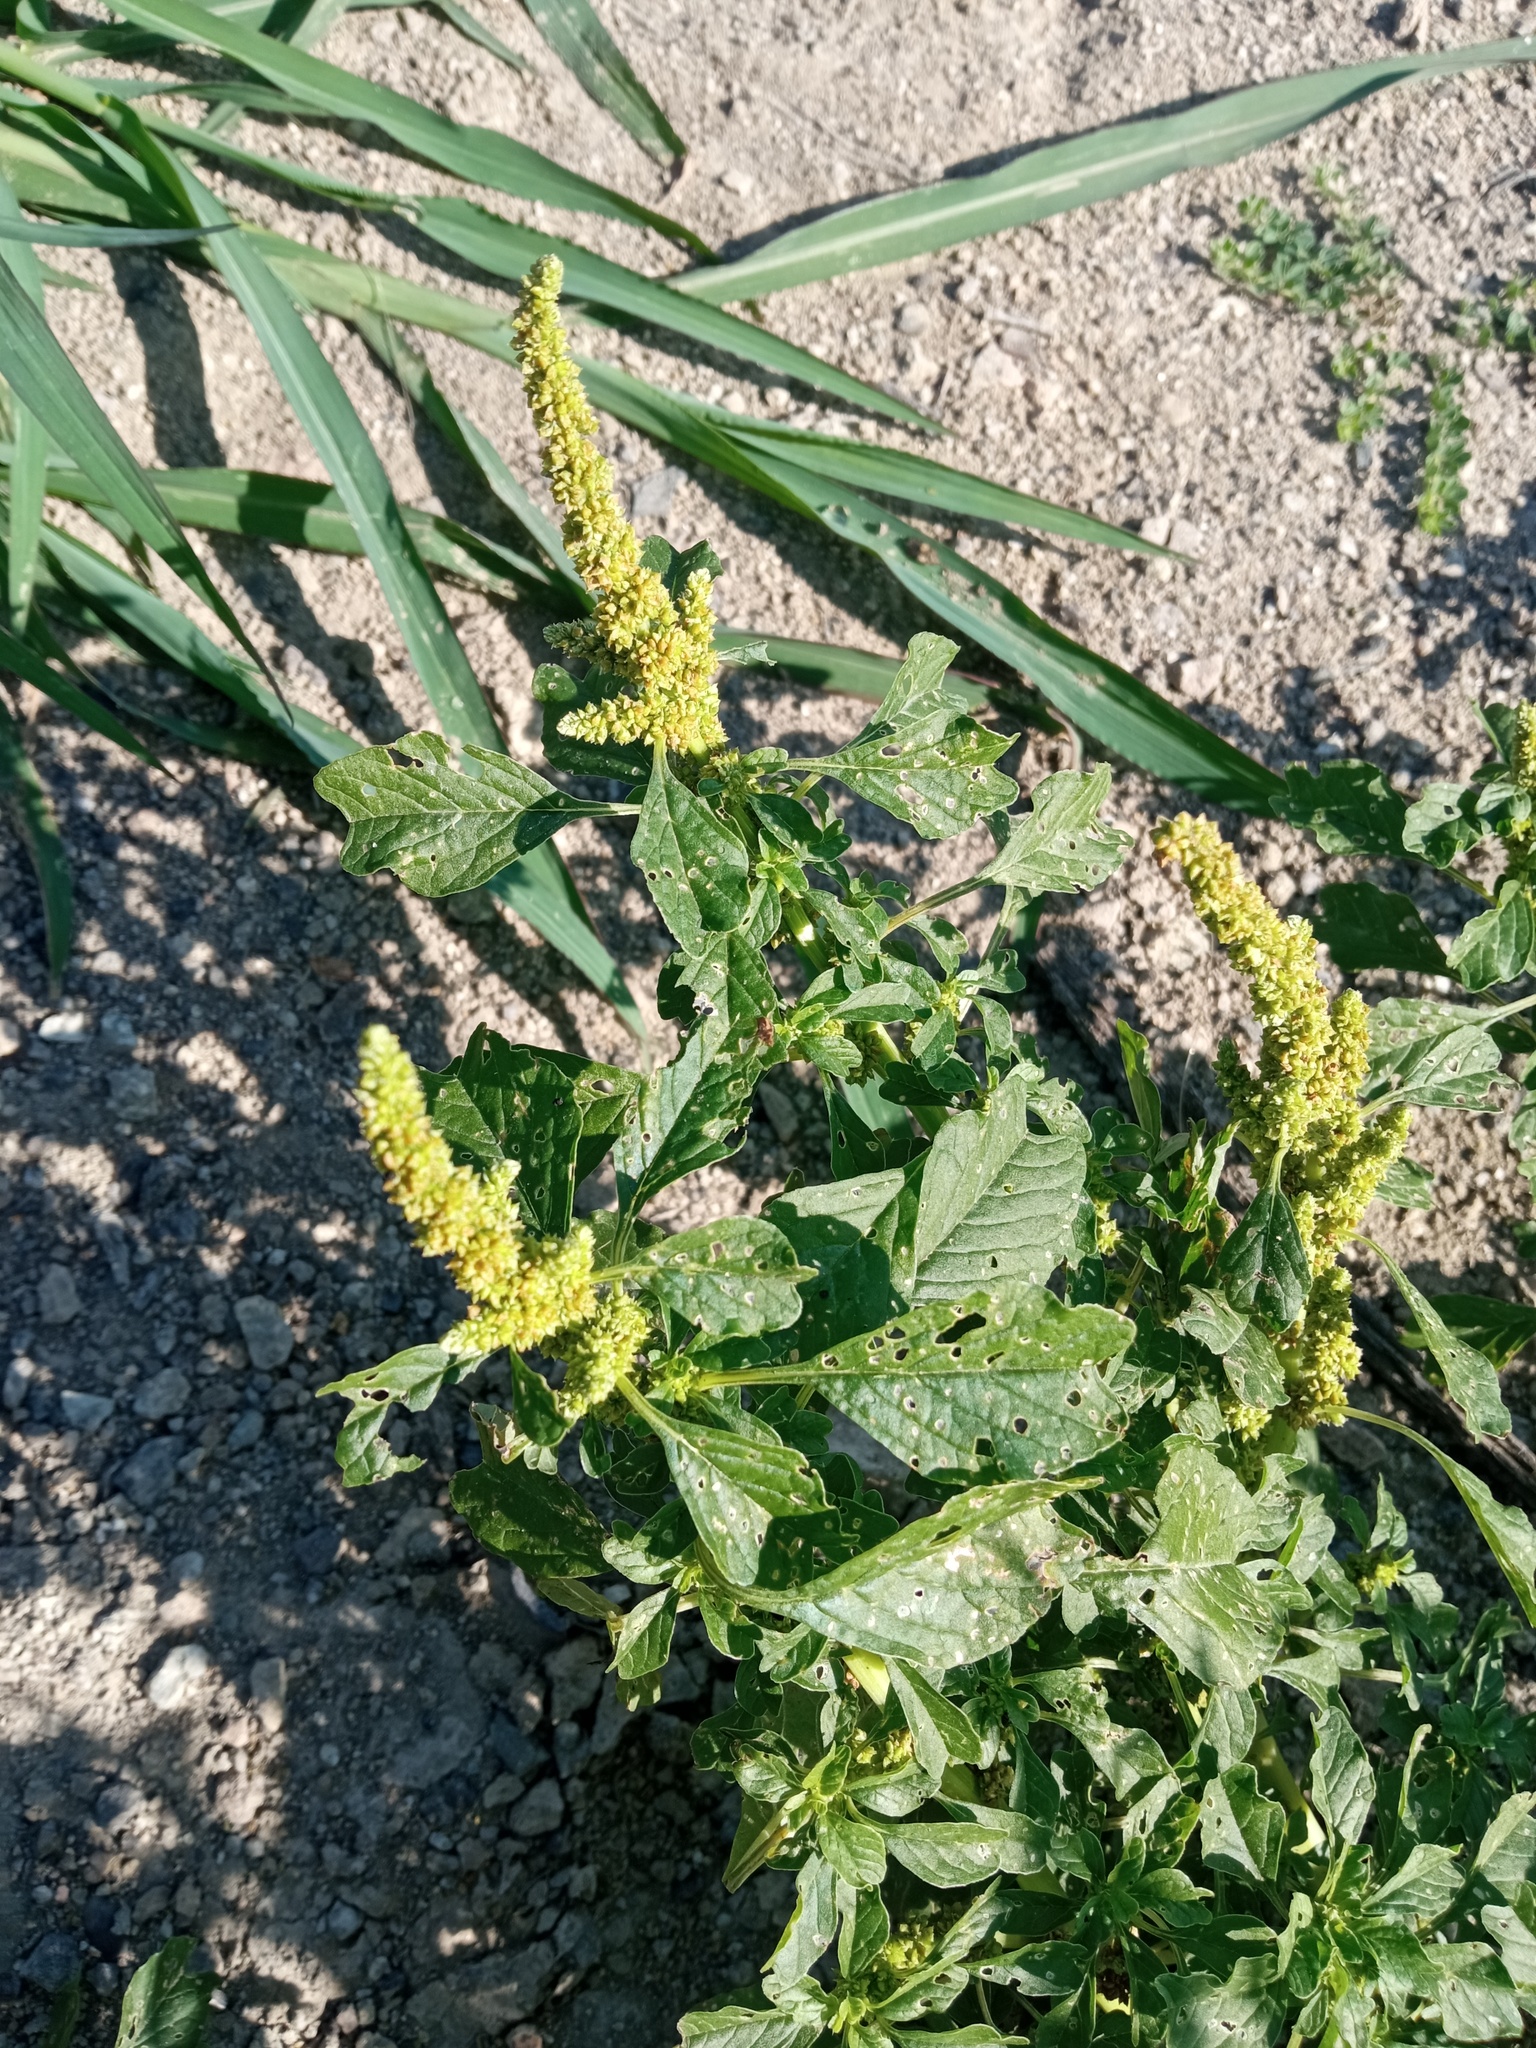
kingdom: Plantae
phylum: Tracheophyta
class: Magnoliopsida
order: Caryophyllales
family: Amaranthaceae
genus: Amaranthus
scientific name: Amaranthus emarginatus
